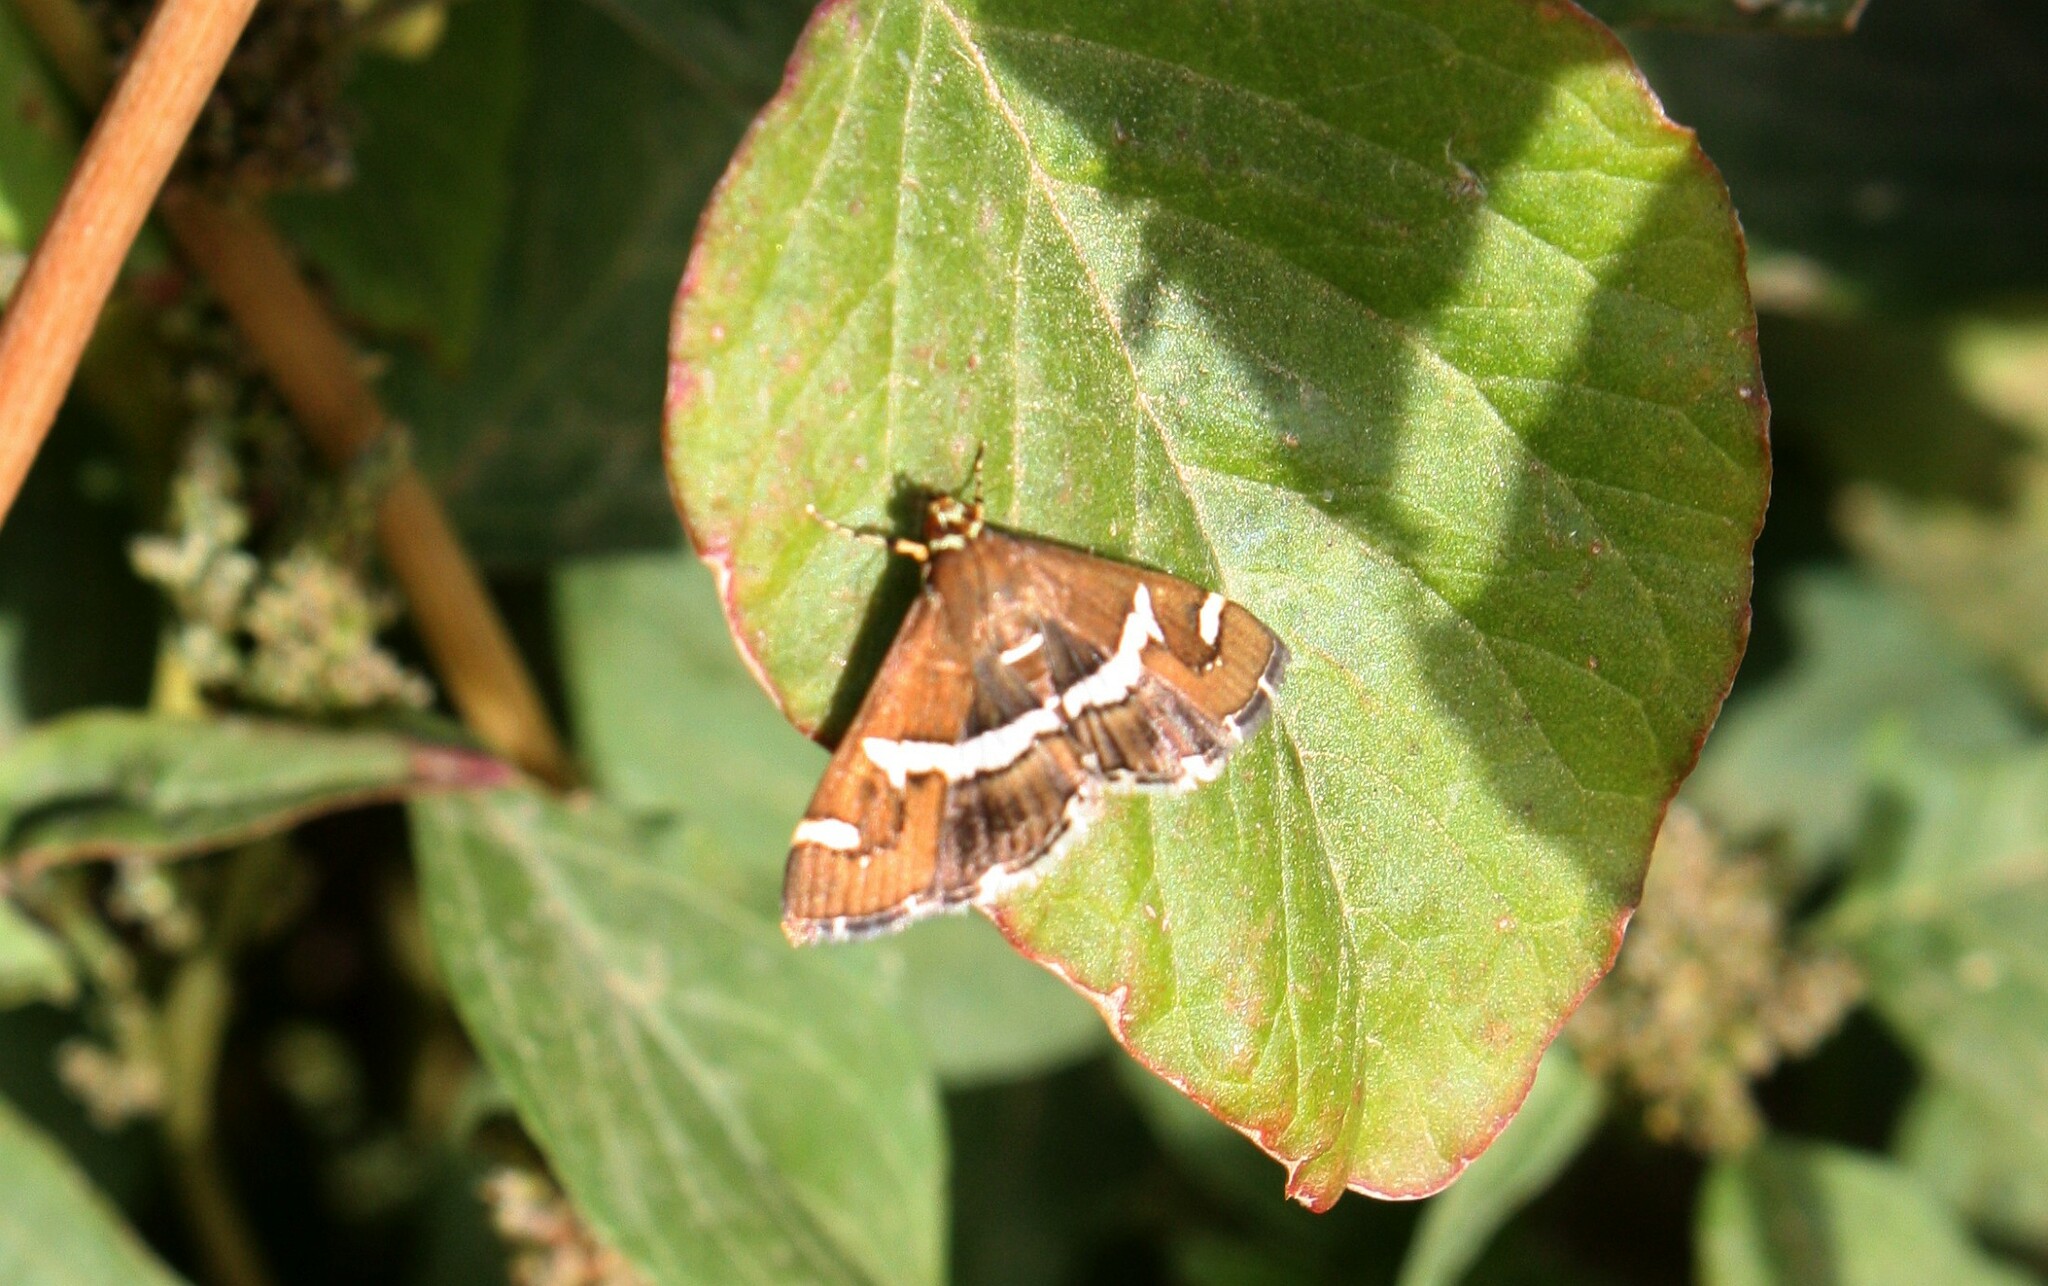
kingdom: Animalia
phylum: Arthropoda
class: Insecta
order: Lepidoptera
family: Crambidae
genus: Spoladea
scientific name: Spoladea recurvalis
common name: Beet webworm moth
